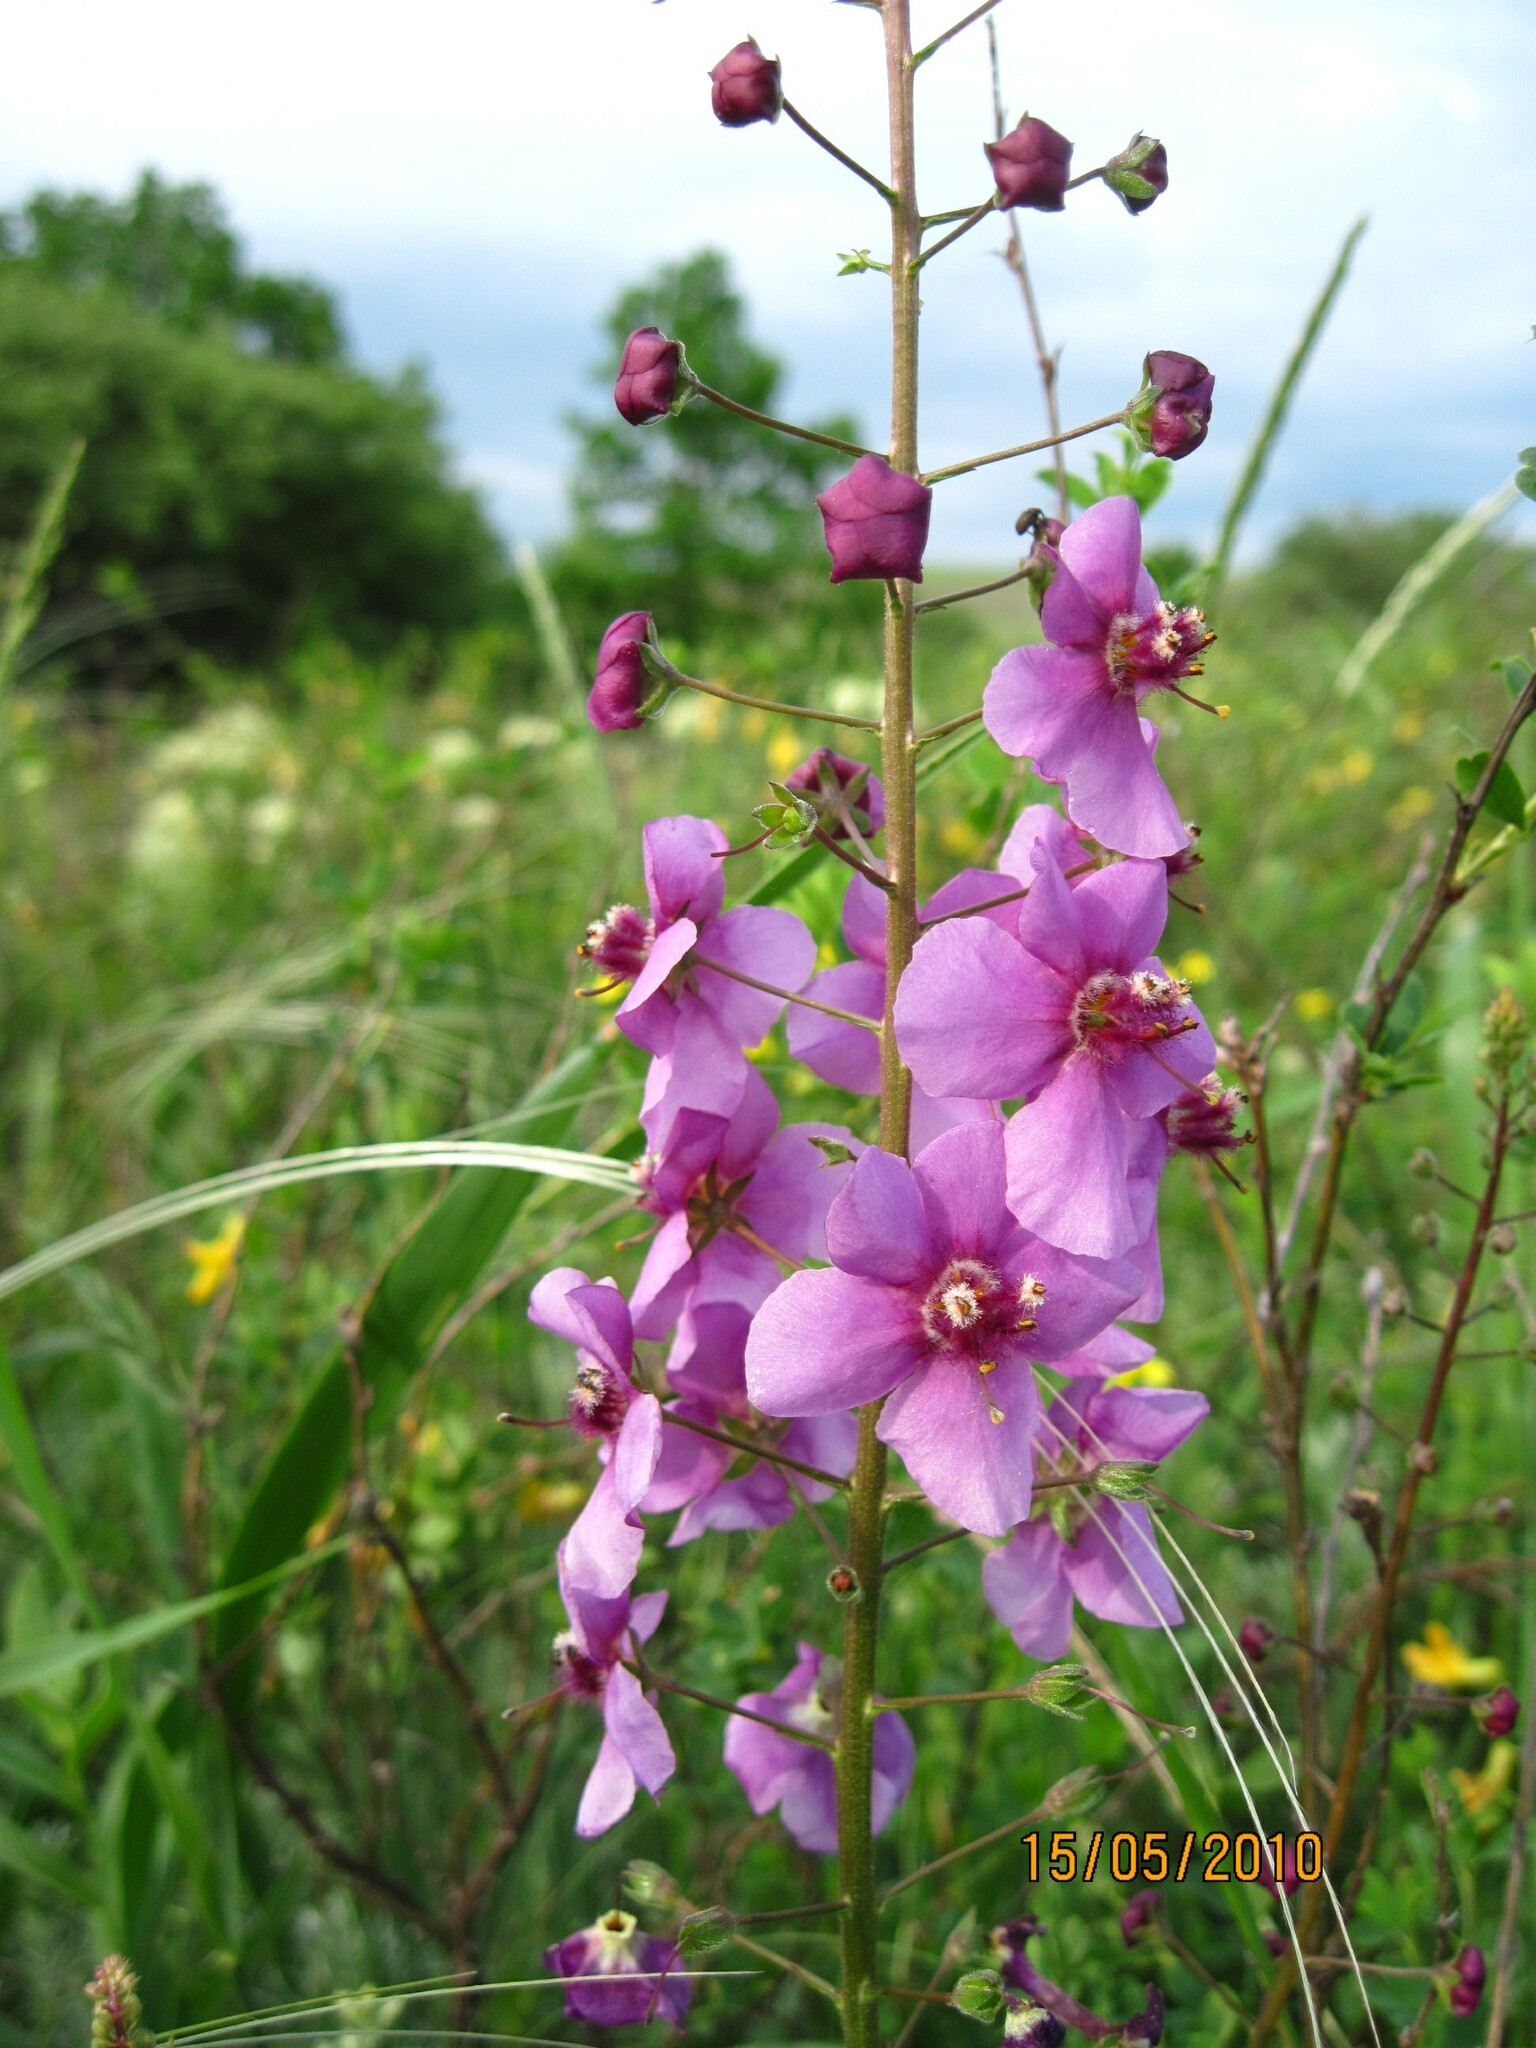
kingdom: Plantae
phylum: Tracheophyta
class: Magnoliopsida
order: Lamiales
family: Scrophulariaceae
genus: Verbascum
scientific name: Verbascum phoeniceum
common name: Purple mullein
